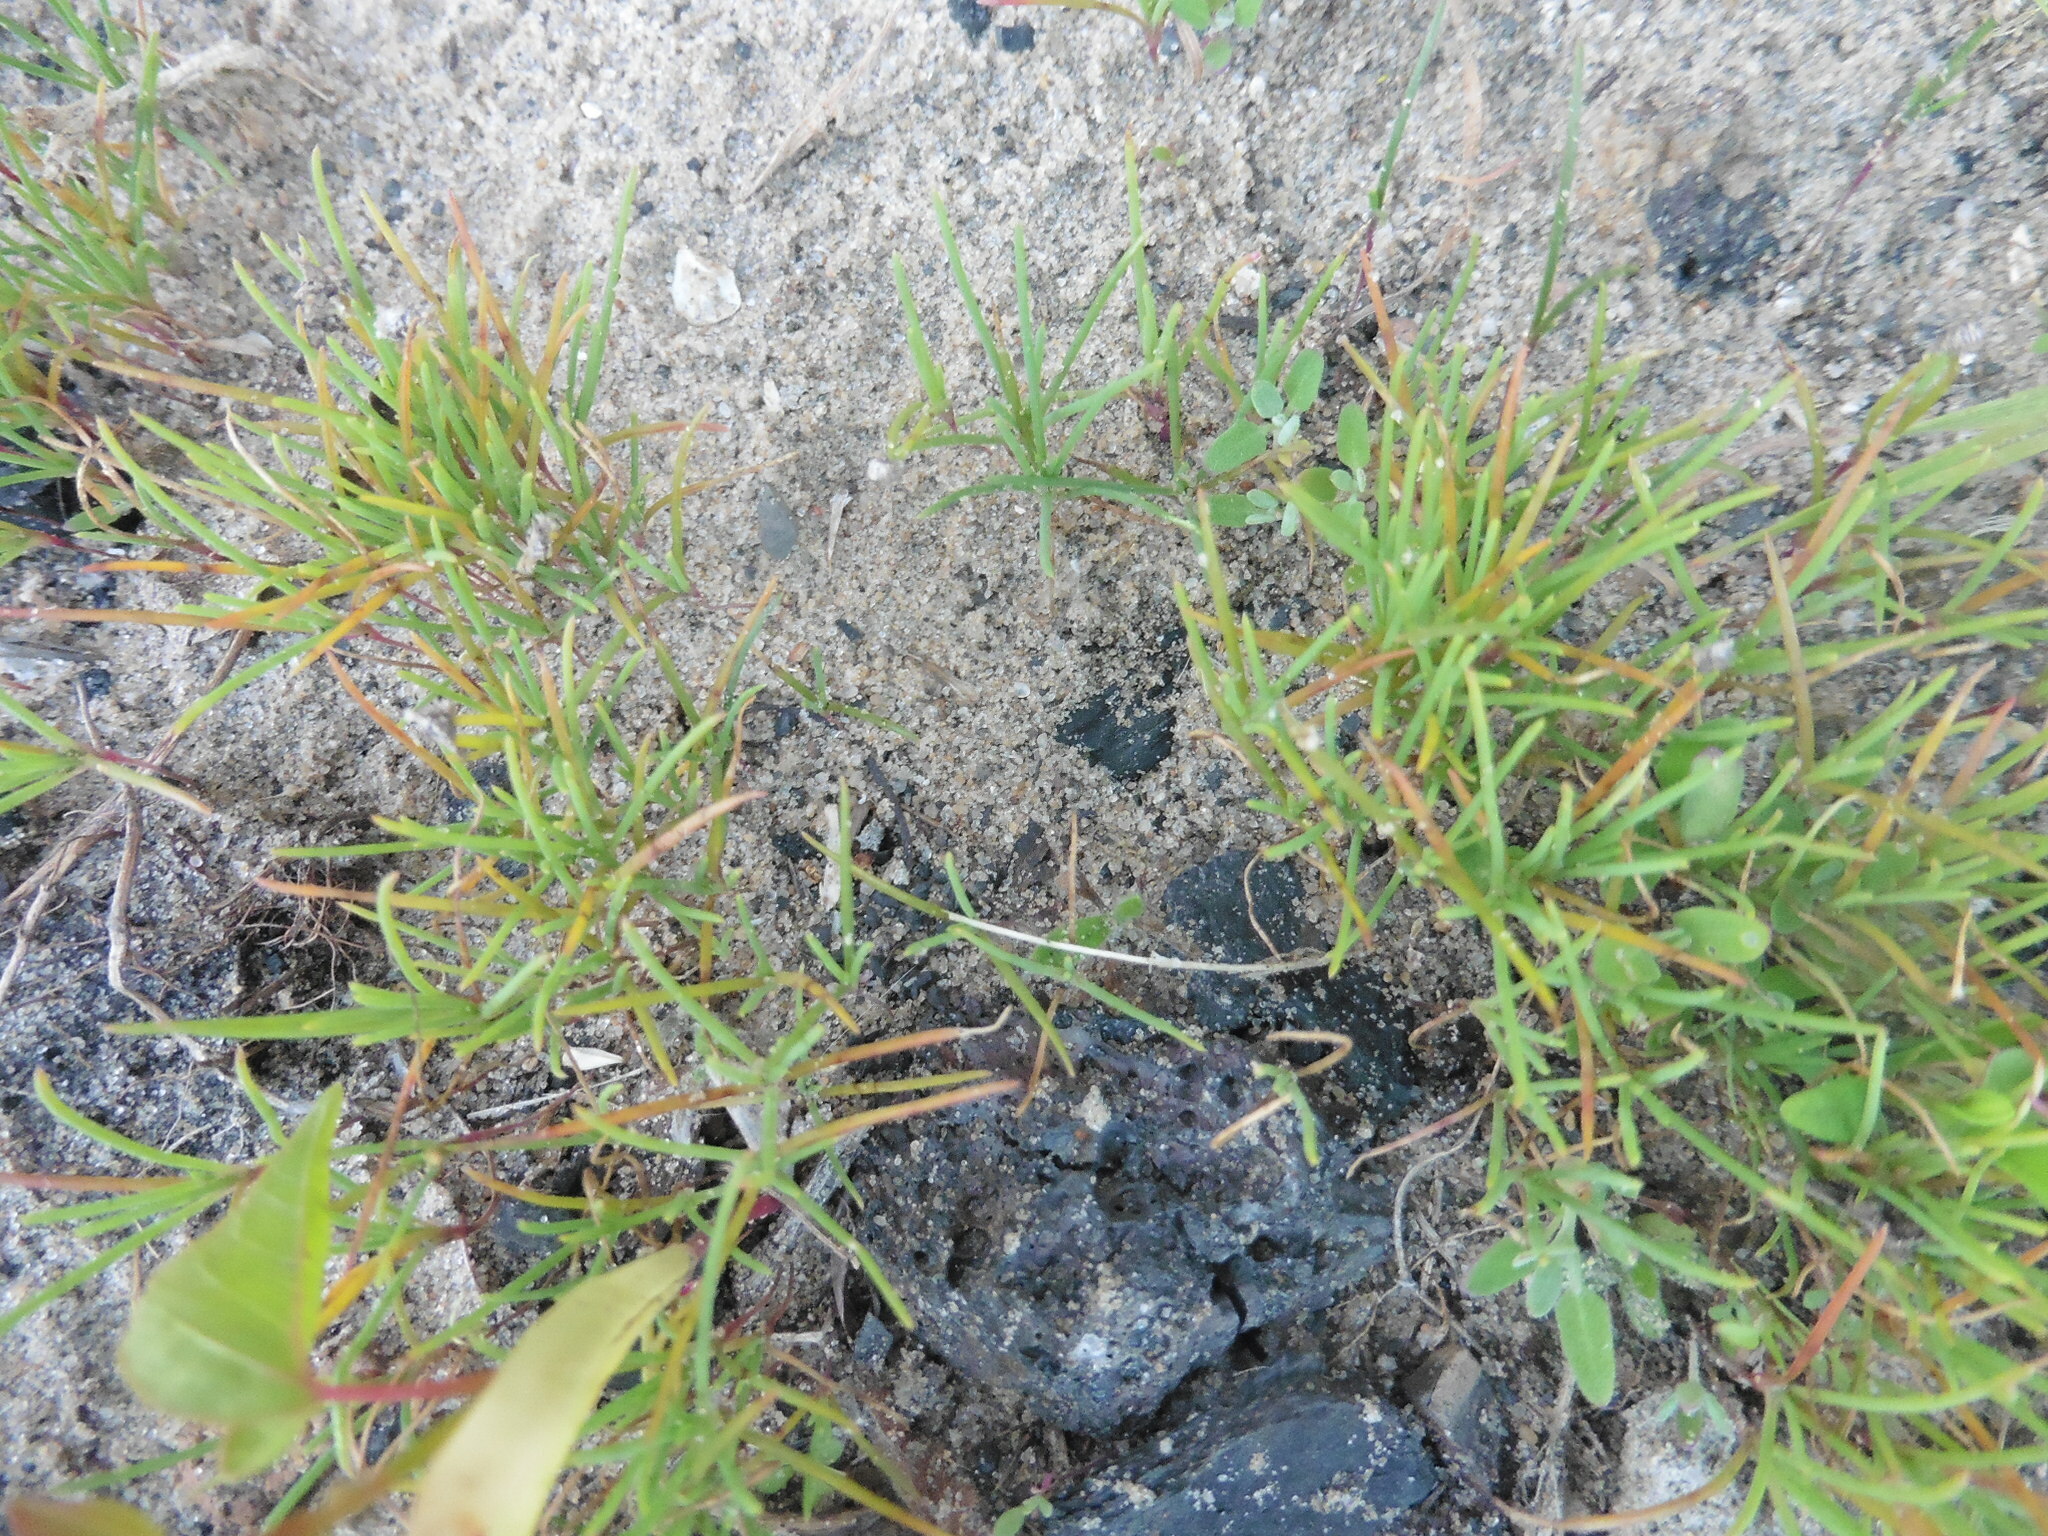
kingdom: Plantae
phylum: Tracheophyta
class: Magnoliopsida
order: Caryophyllales
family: Amaranthaceae
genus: Salsola
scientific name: Salsola tragus
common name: Prickly russian thistle
